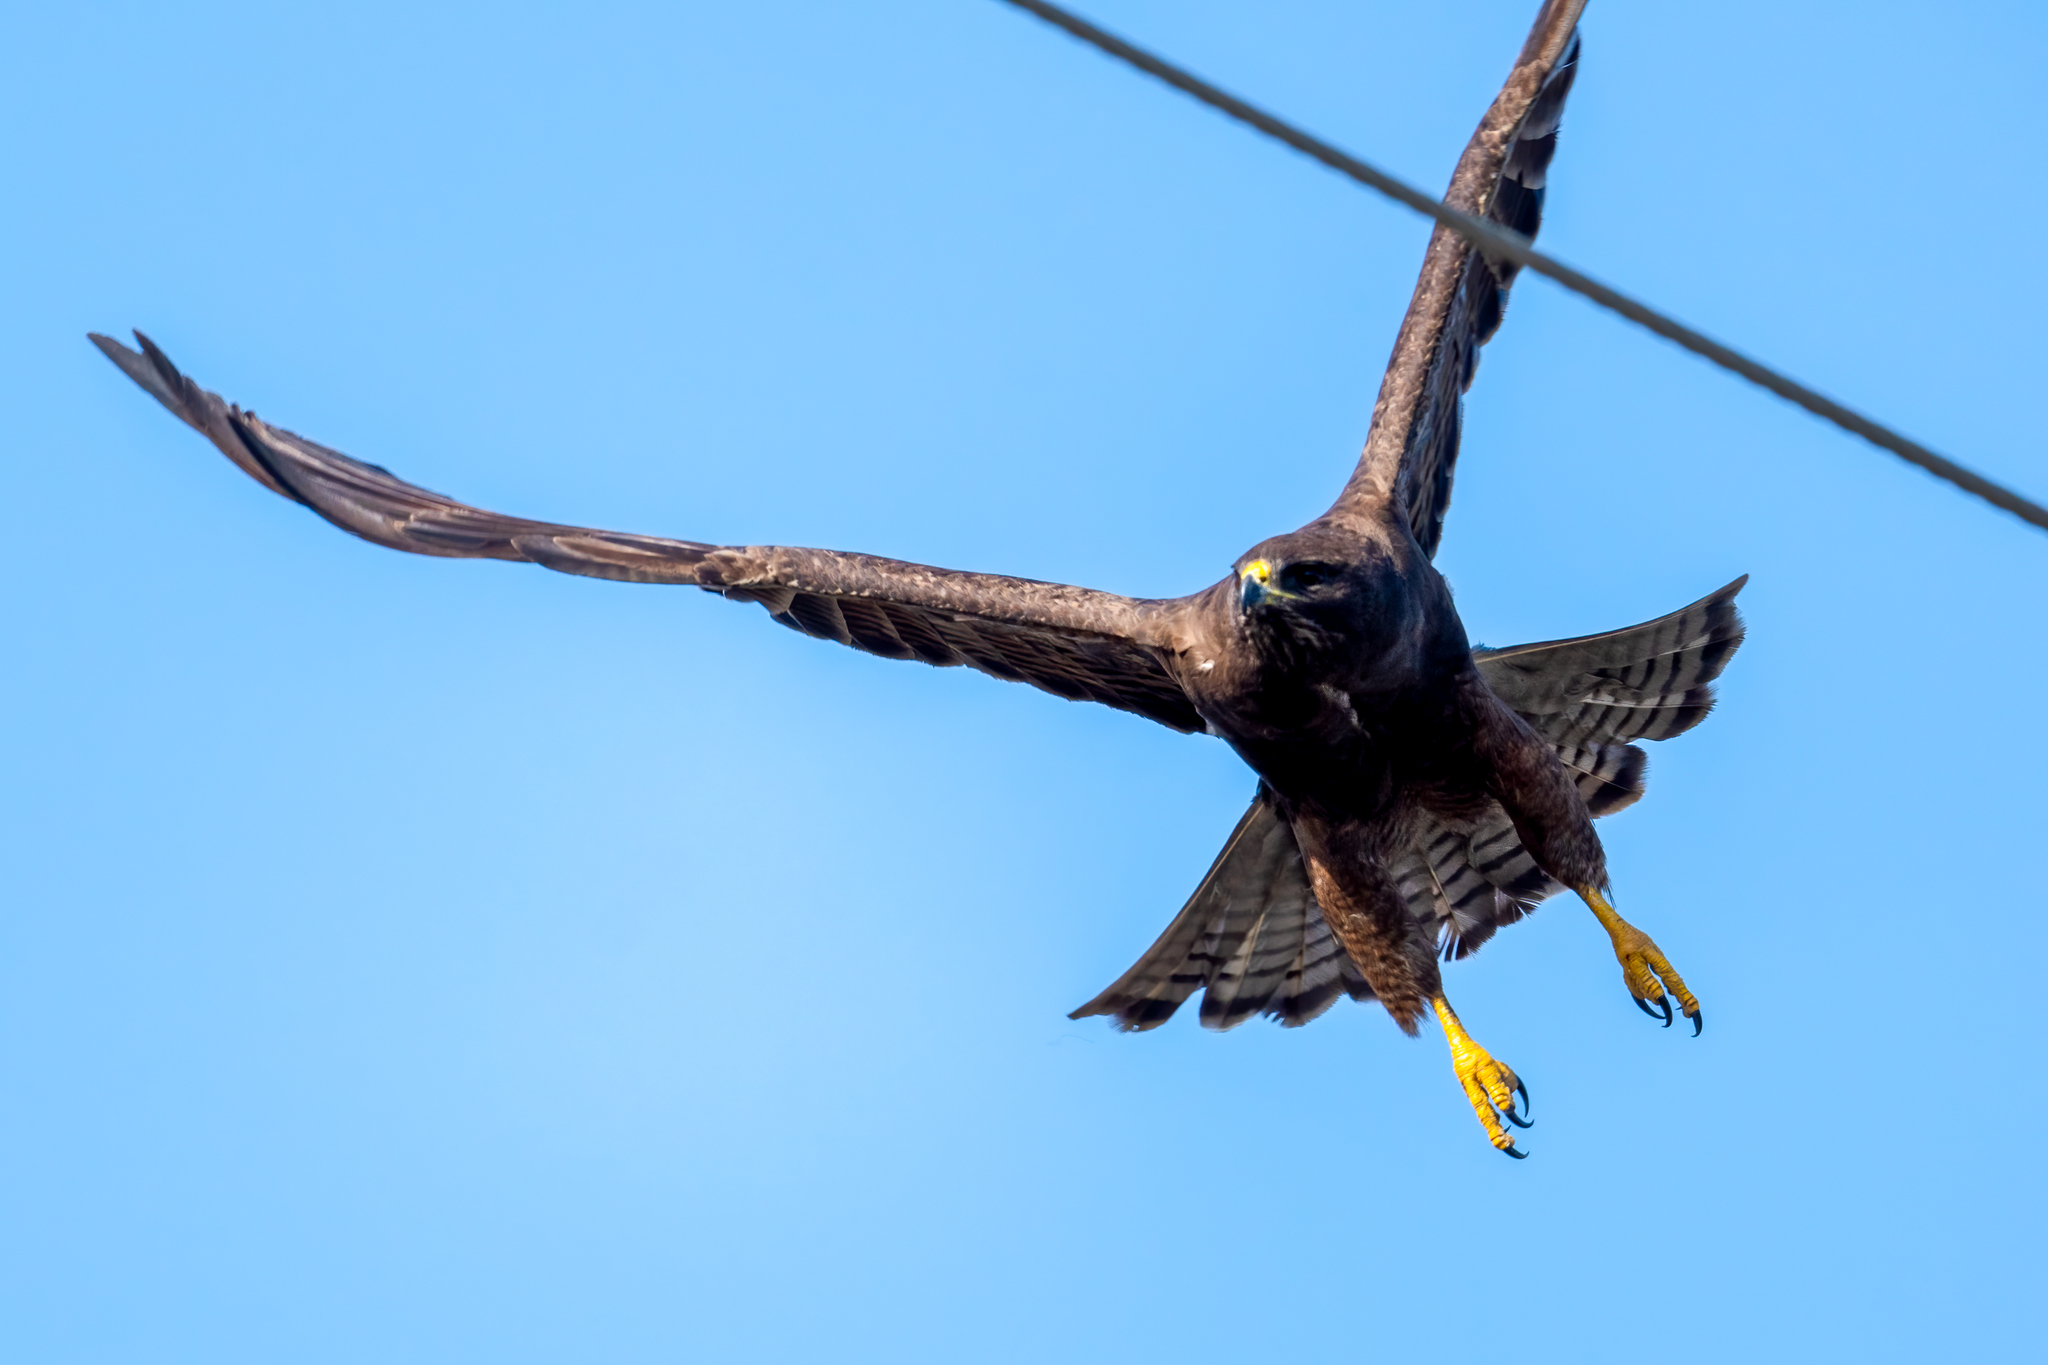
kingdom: Animalia
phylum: Chordata
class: Aves
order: Accipitriformes
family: Accipitridae
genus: Buteo
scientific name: Buteo swainsoni
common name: Swainson's hawk
